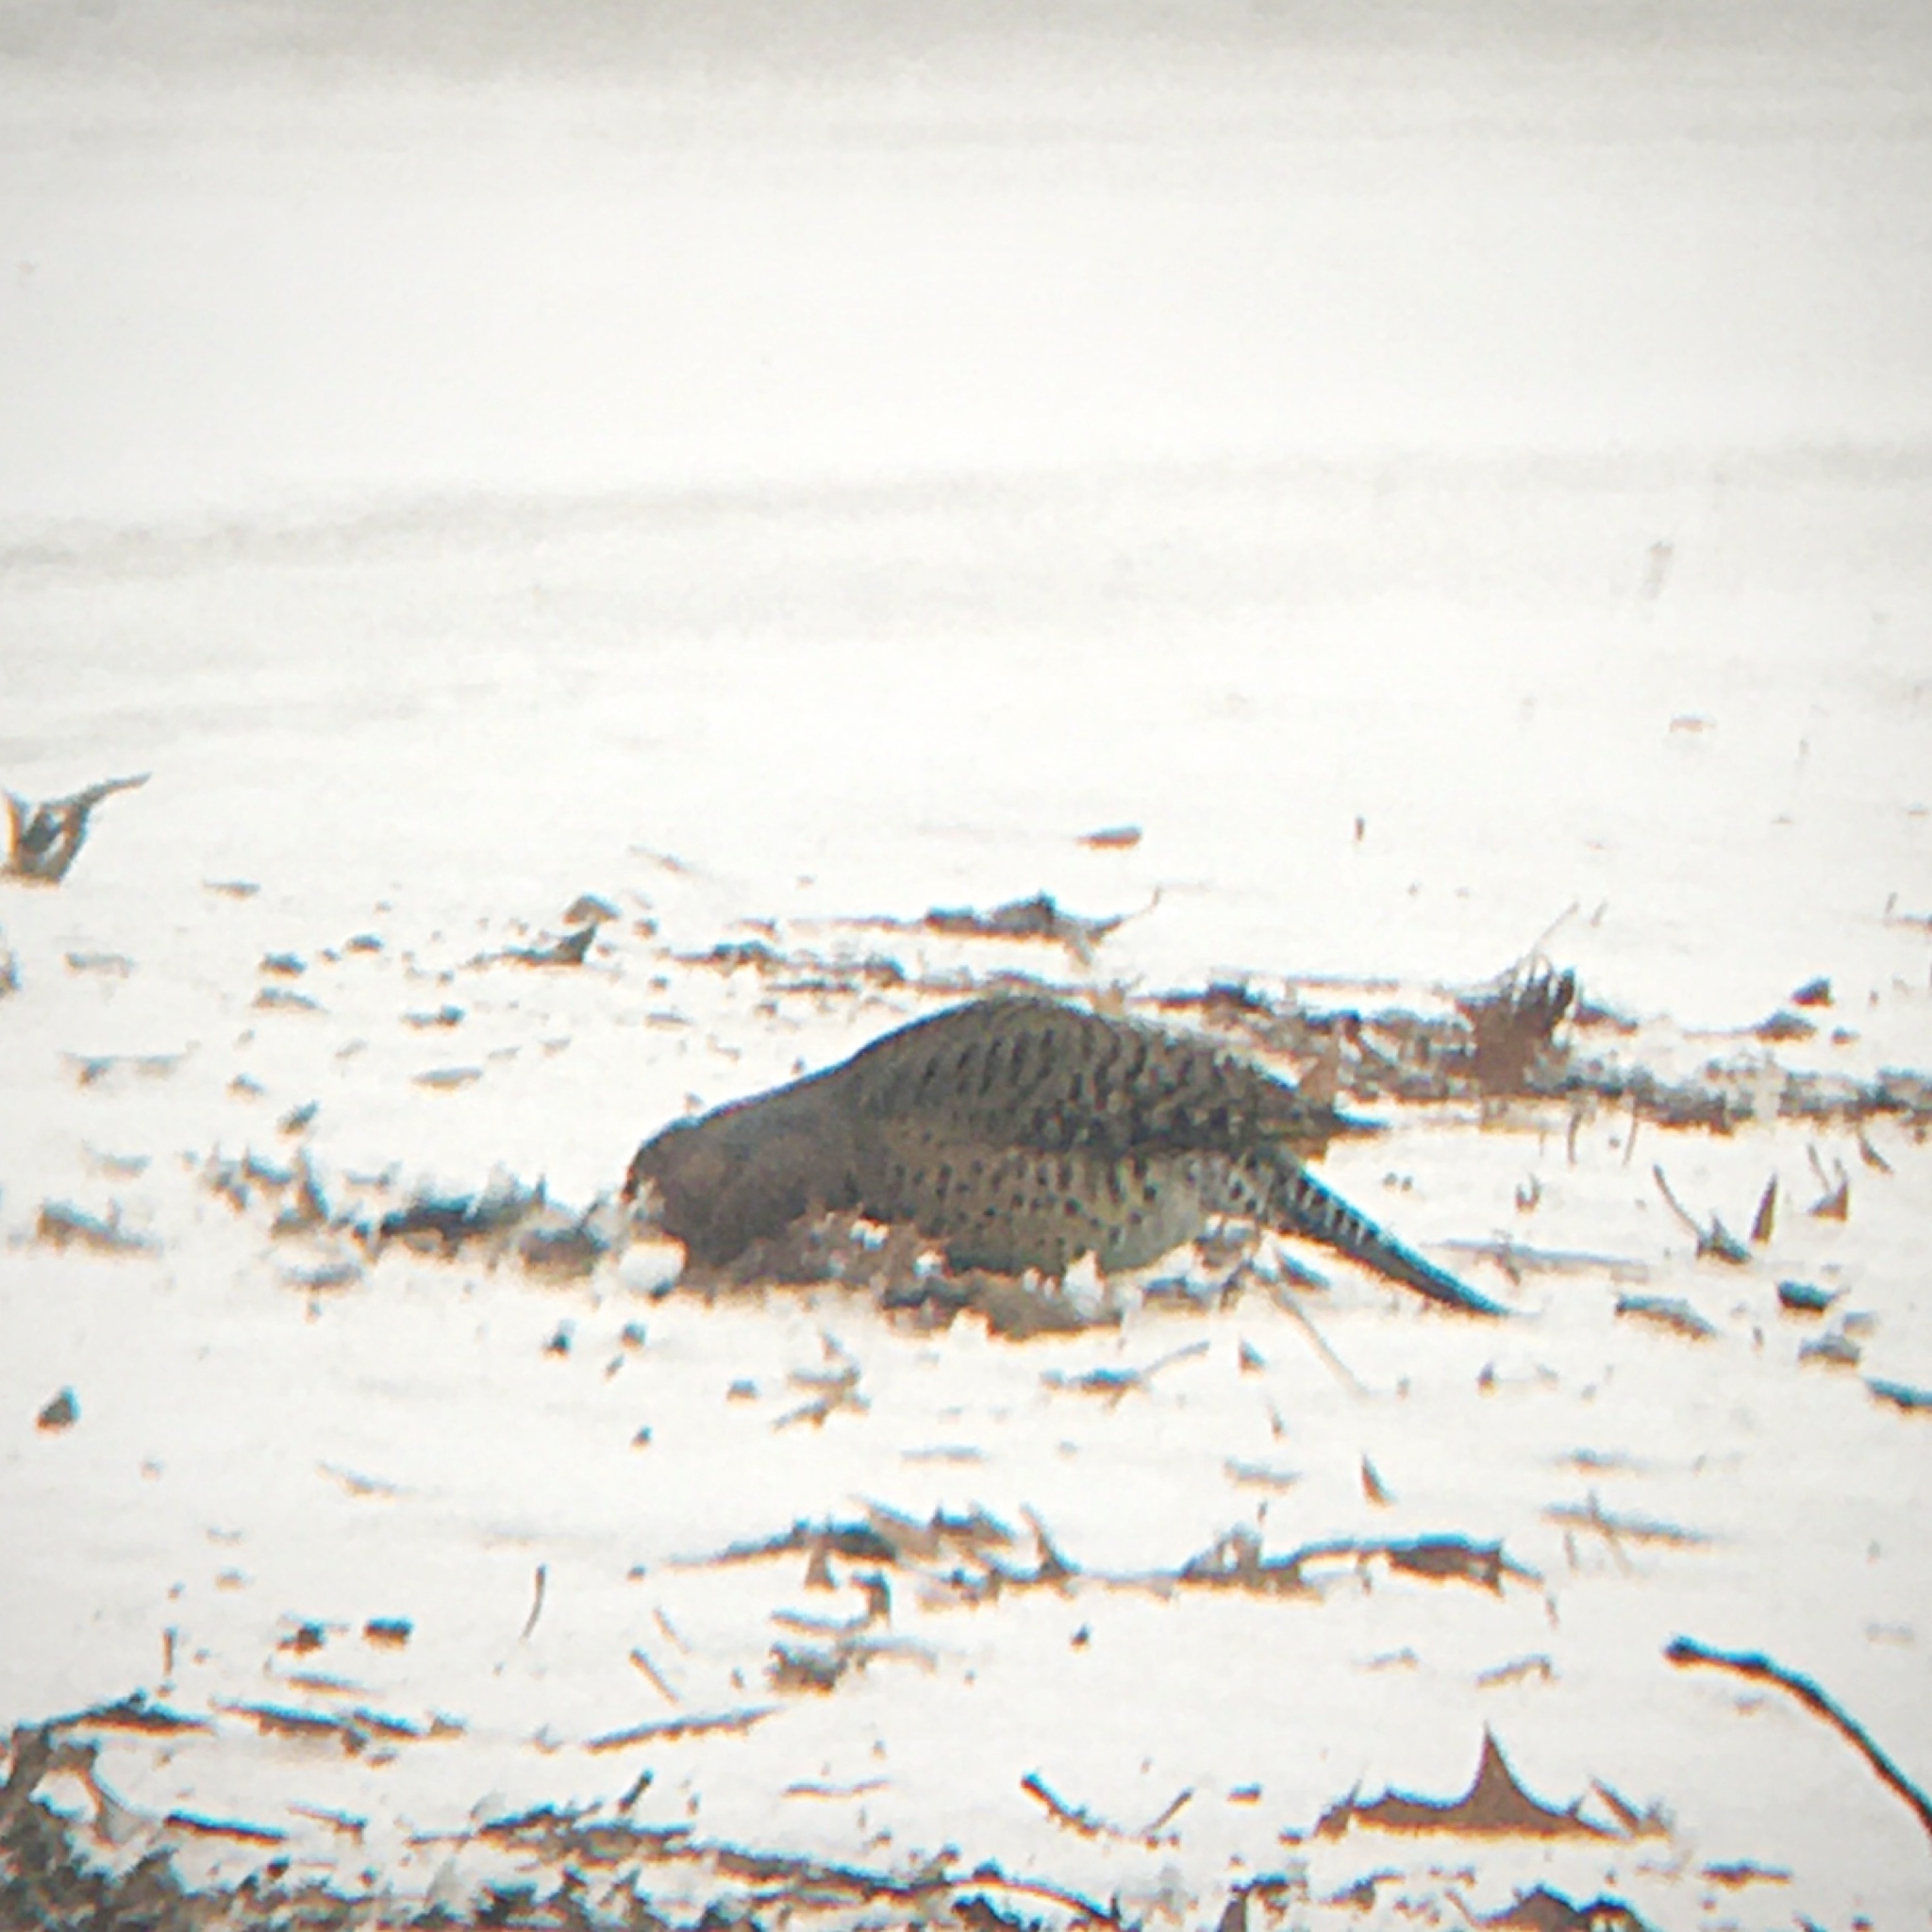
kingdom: Animalia
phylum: Chordata
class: Aves
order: Piciformes
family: Picidae
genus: Colaptes
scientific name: Colaptes auratus
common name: Northern flicker
